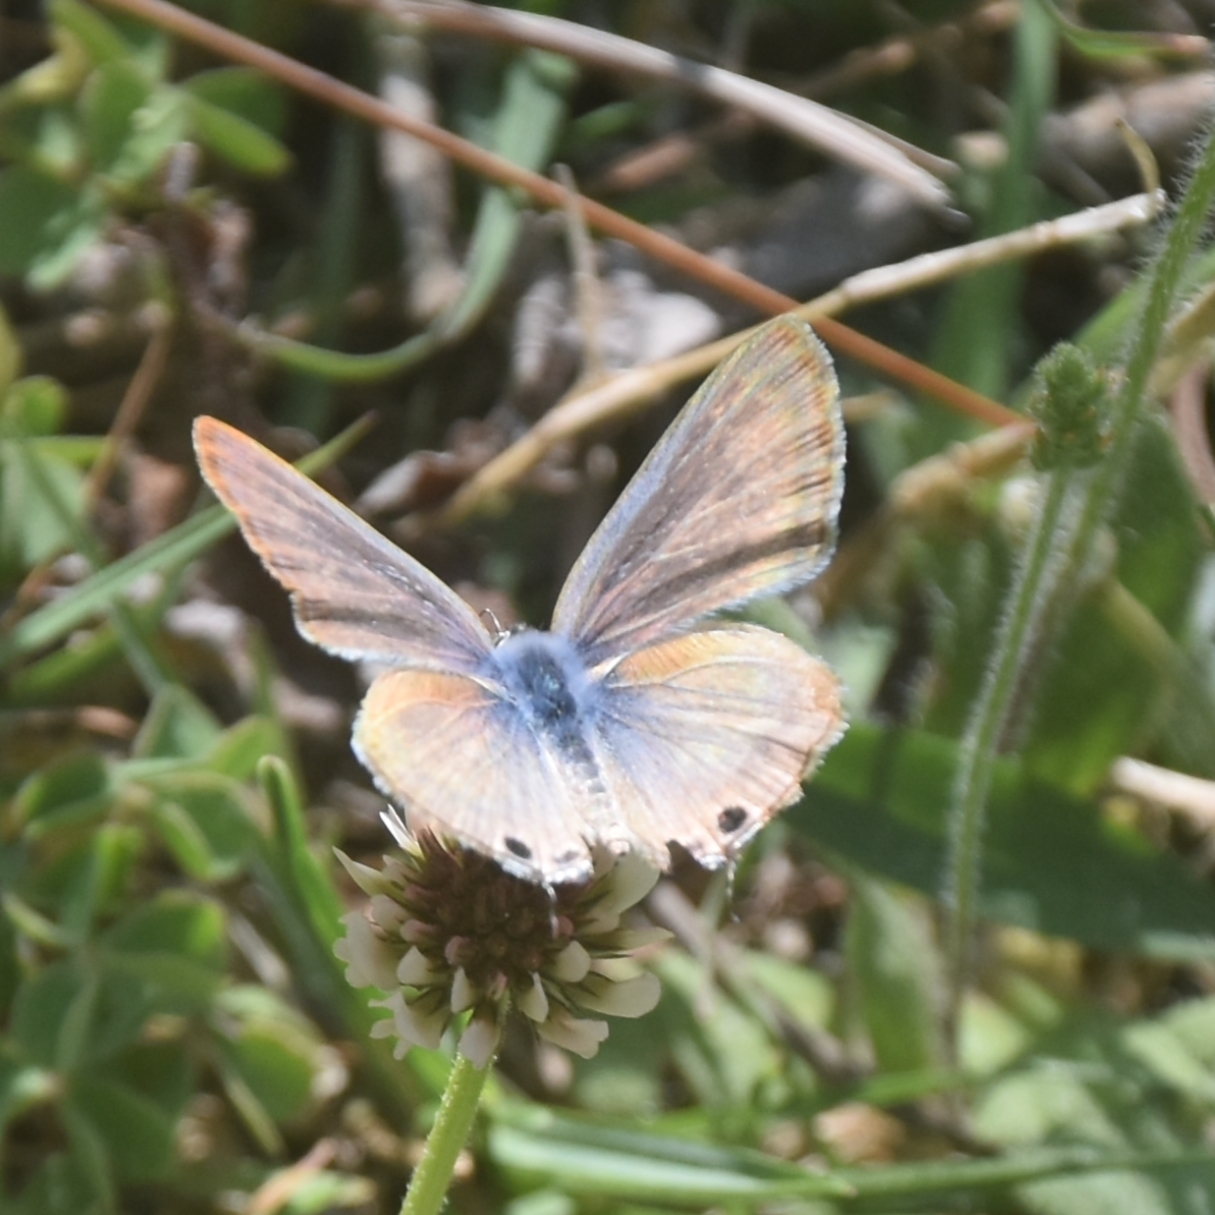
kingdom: Animalia
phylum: Arthropoda
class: Insecta
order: Lepidoptera
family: Lycaenidae
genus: Lampides
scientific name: Lampides boeticus
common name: Long-tailed blue
